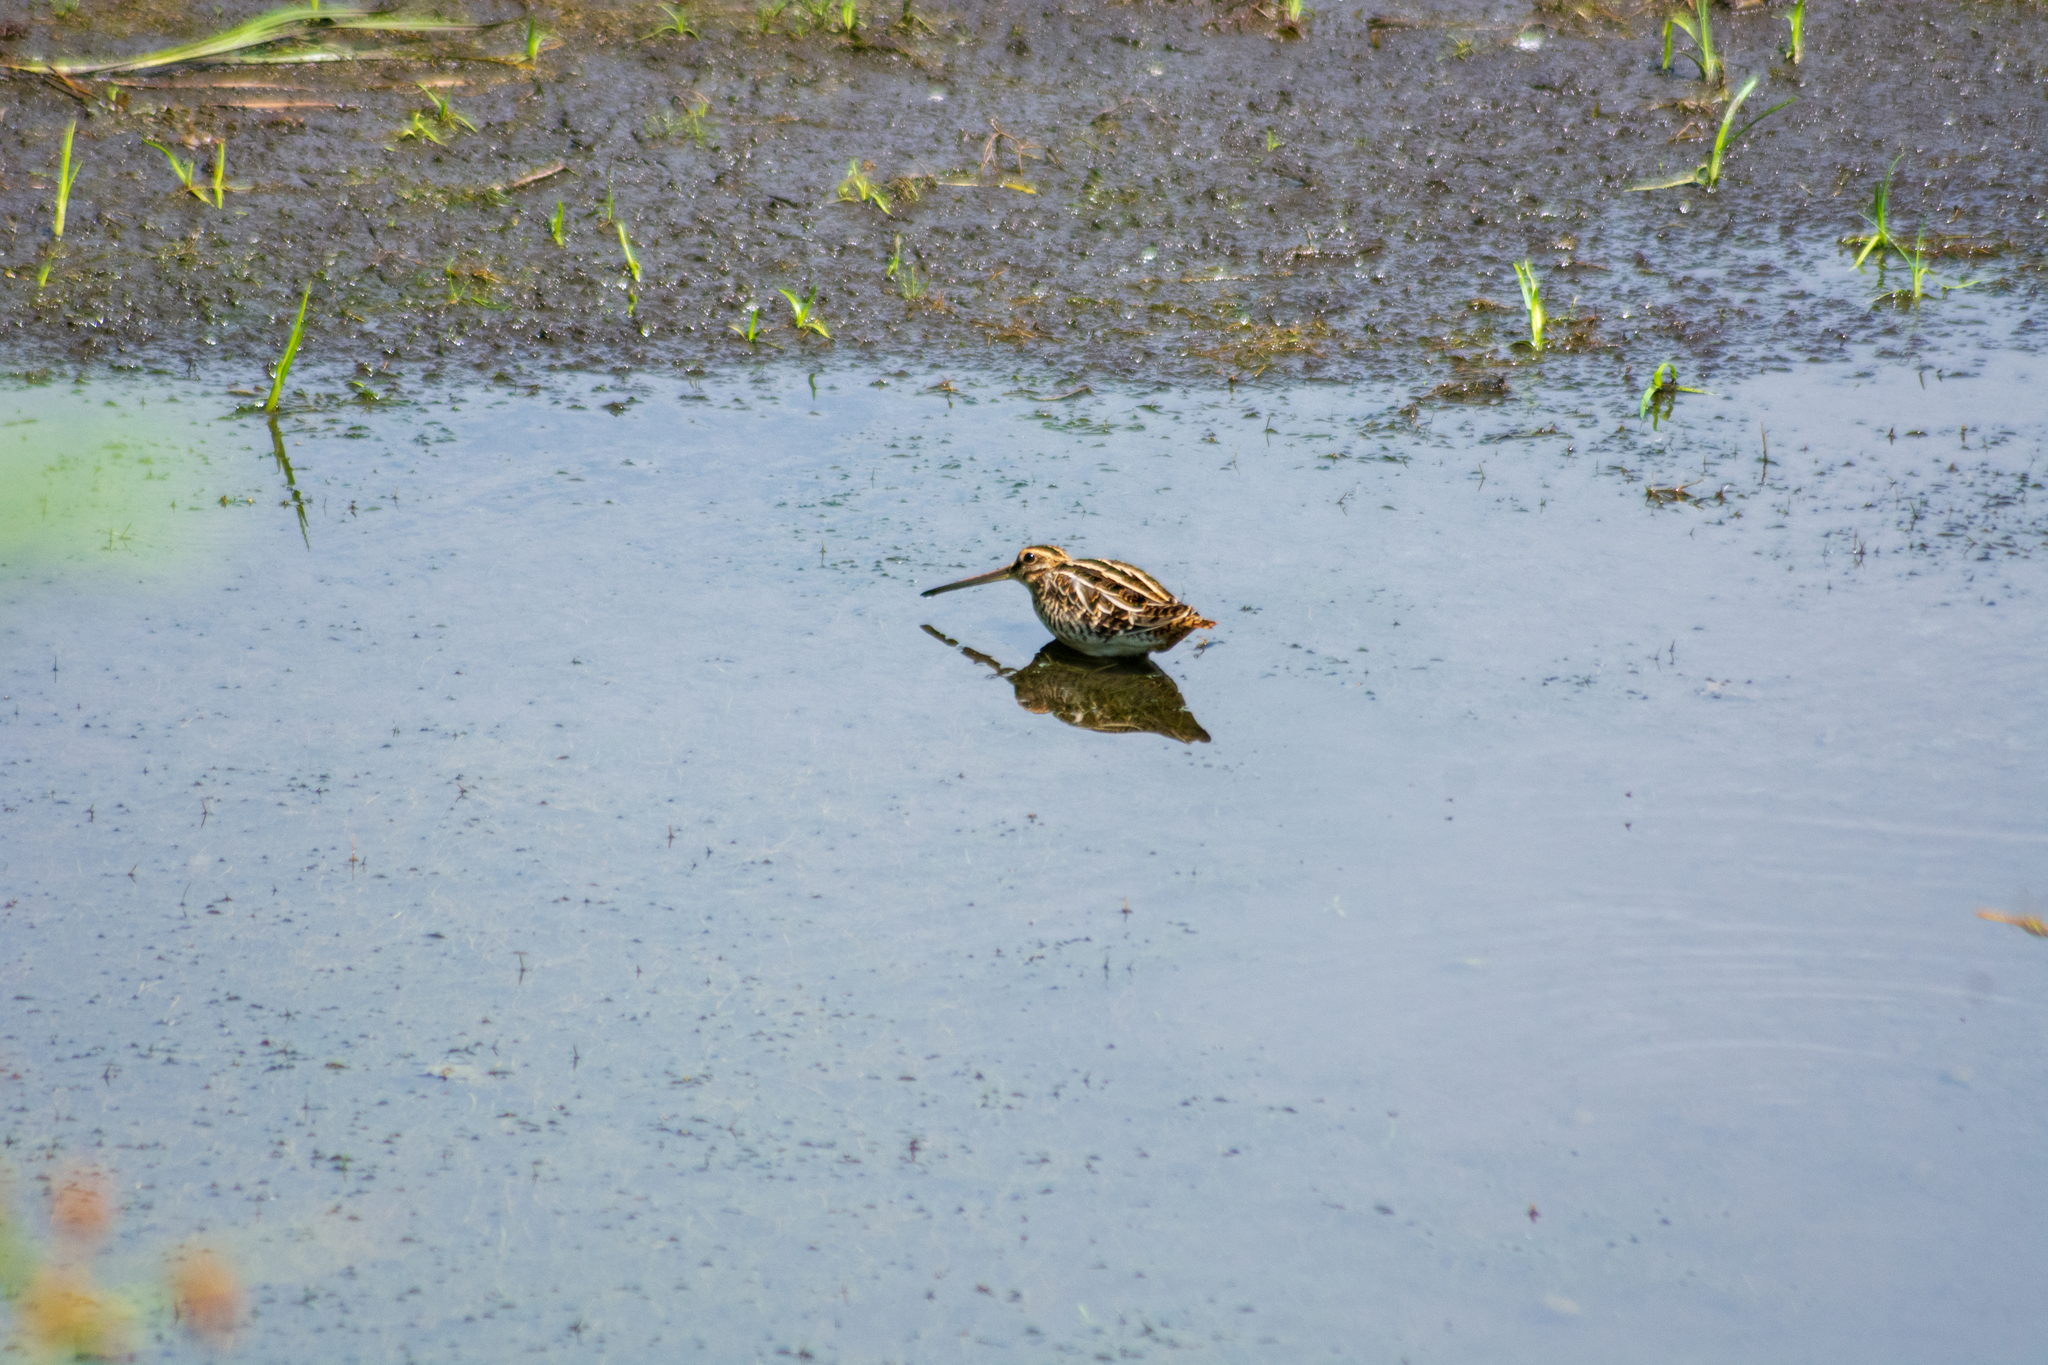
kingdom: Animalia
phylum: Chordata
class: Aves
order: Charadriiformes
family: Scolopacidae
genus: Gallinago
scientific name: Gallinago gallinago
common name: Common snipe
